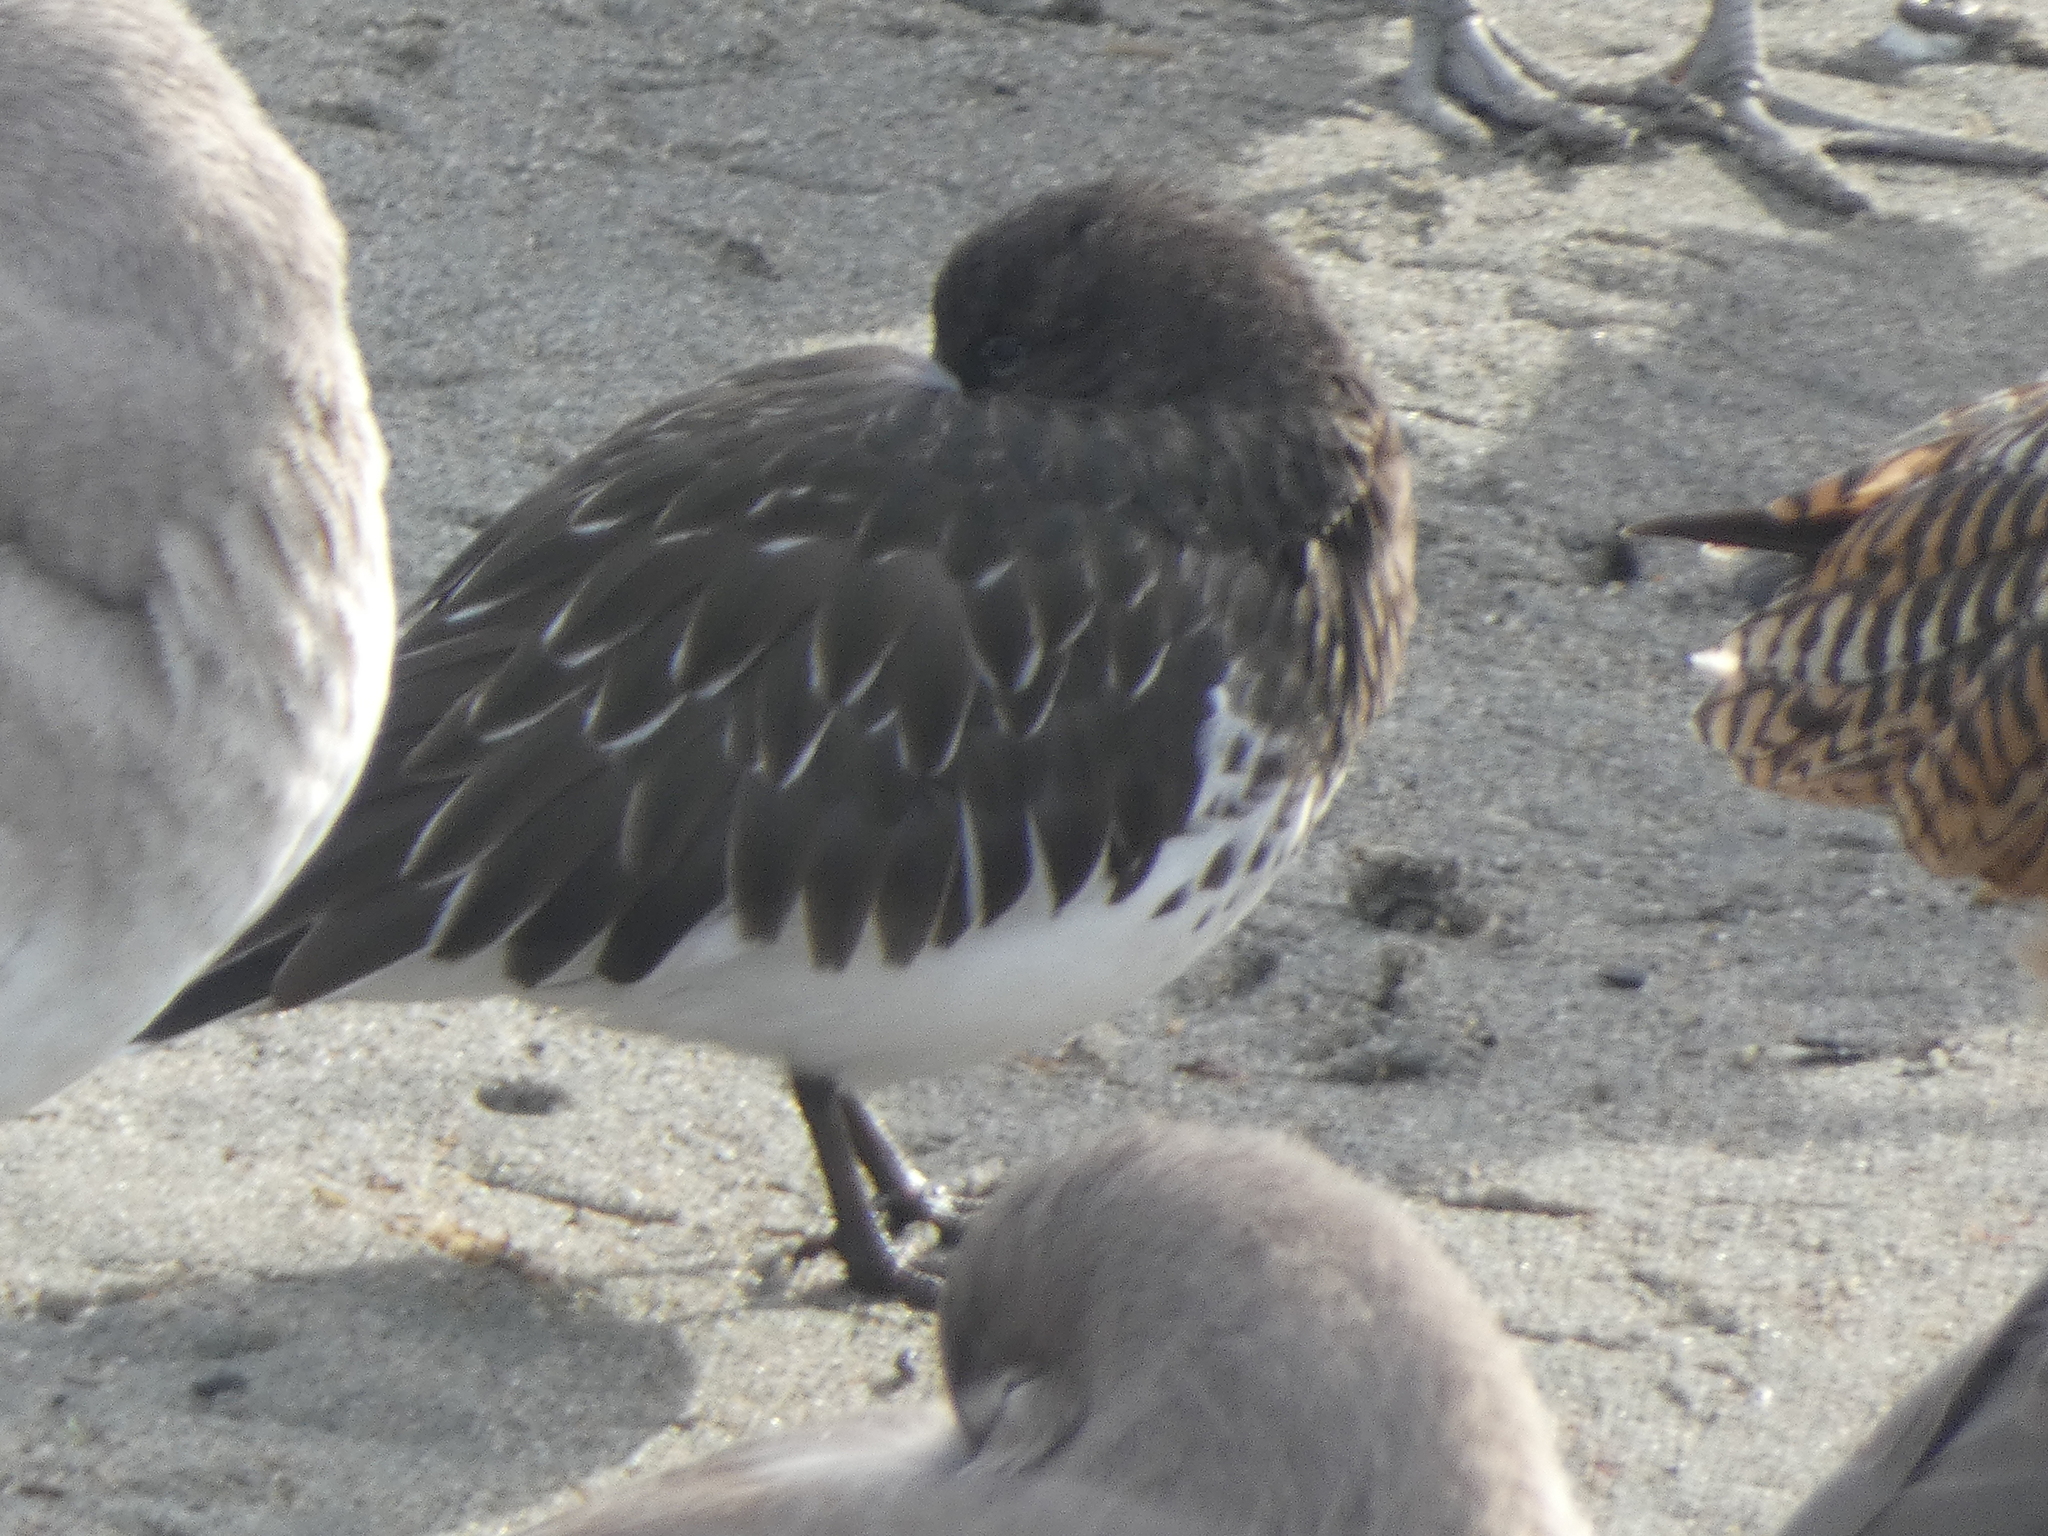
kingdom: Animalia
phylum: Chordata
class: Aves
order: Charadriiformes
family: Scolopacidae
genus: Arenaria
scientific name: Arenaria melanocephala
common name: Black turnstone
